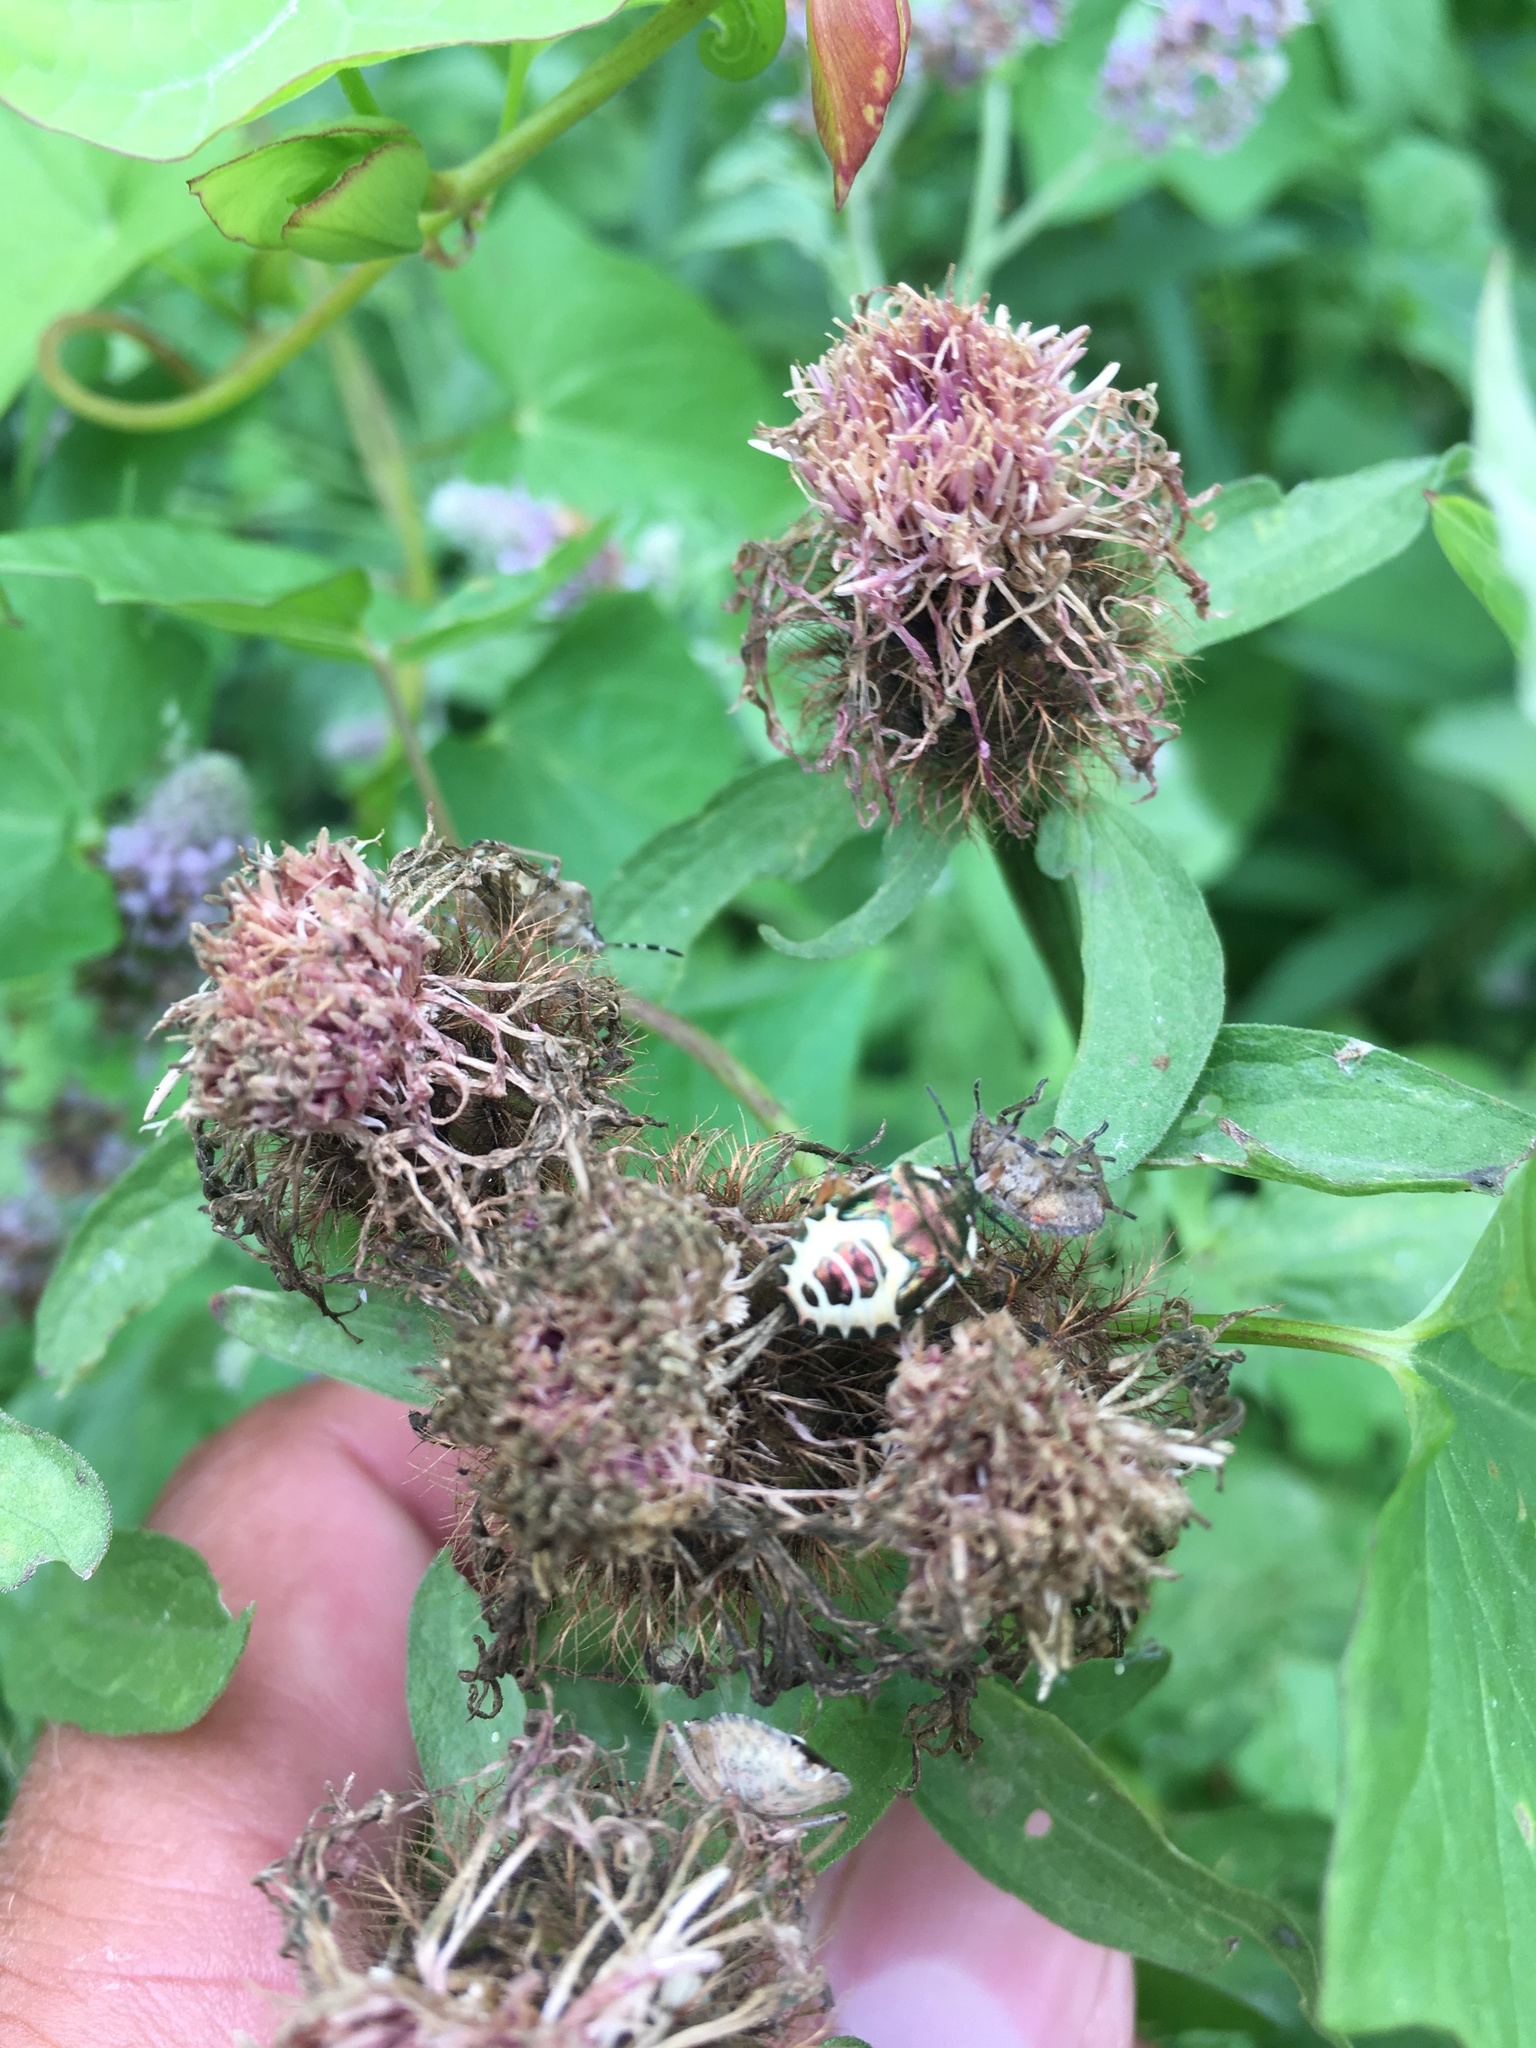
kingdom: Animalia
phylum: Arthropoda
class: Insecta
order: Hemiptera
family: Pentatomidae
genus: Troilus
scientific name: Troilus luridus
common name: Bronze shieldbug
